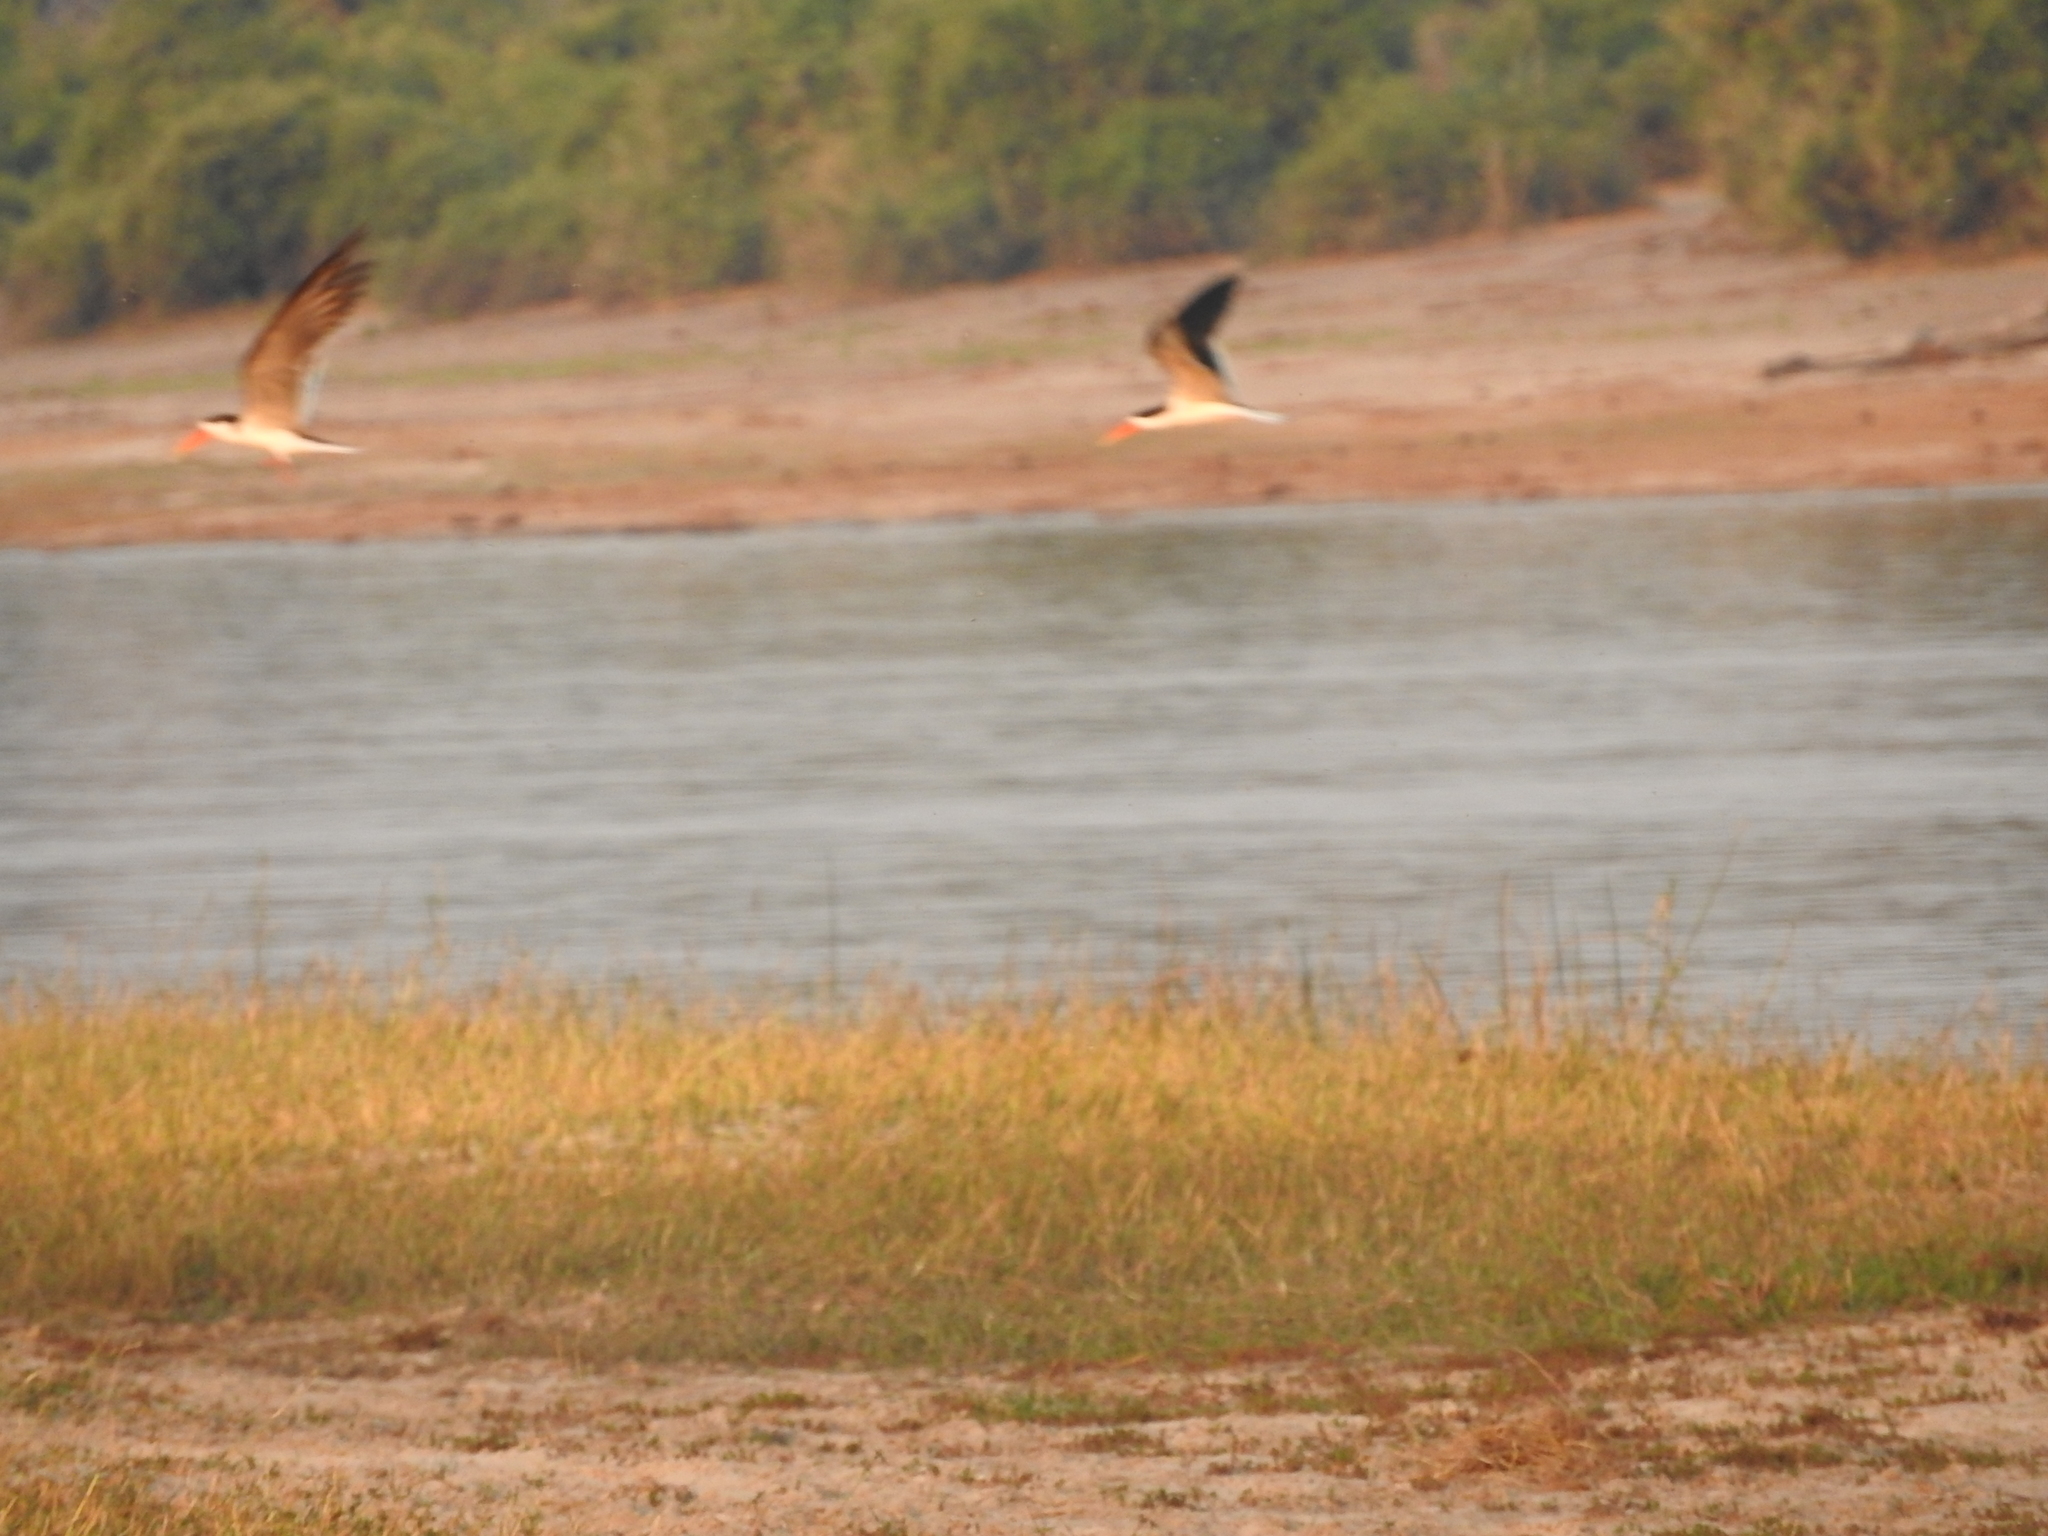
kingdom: Animalia
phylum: Chordata
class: Aves
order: Charadriiformes
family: Laridae
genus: Rynchops
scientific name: Rynchops flavirostris
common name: African skimmer
